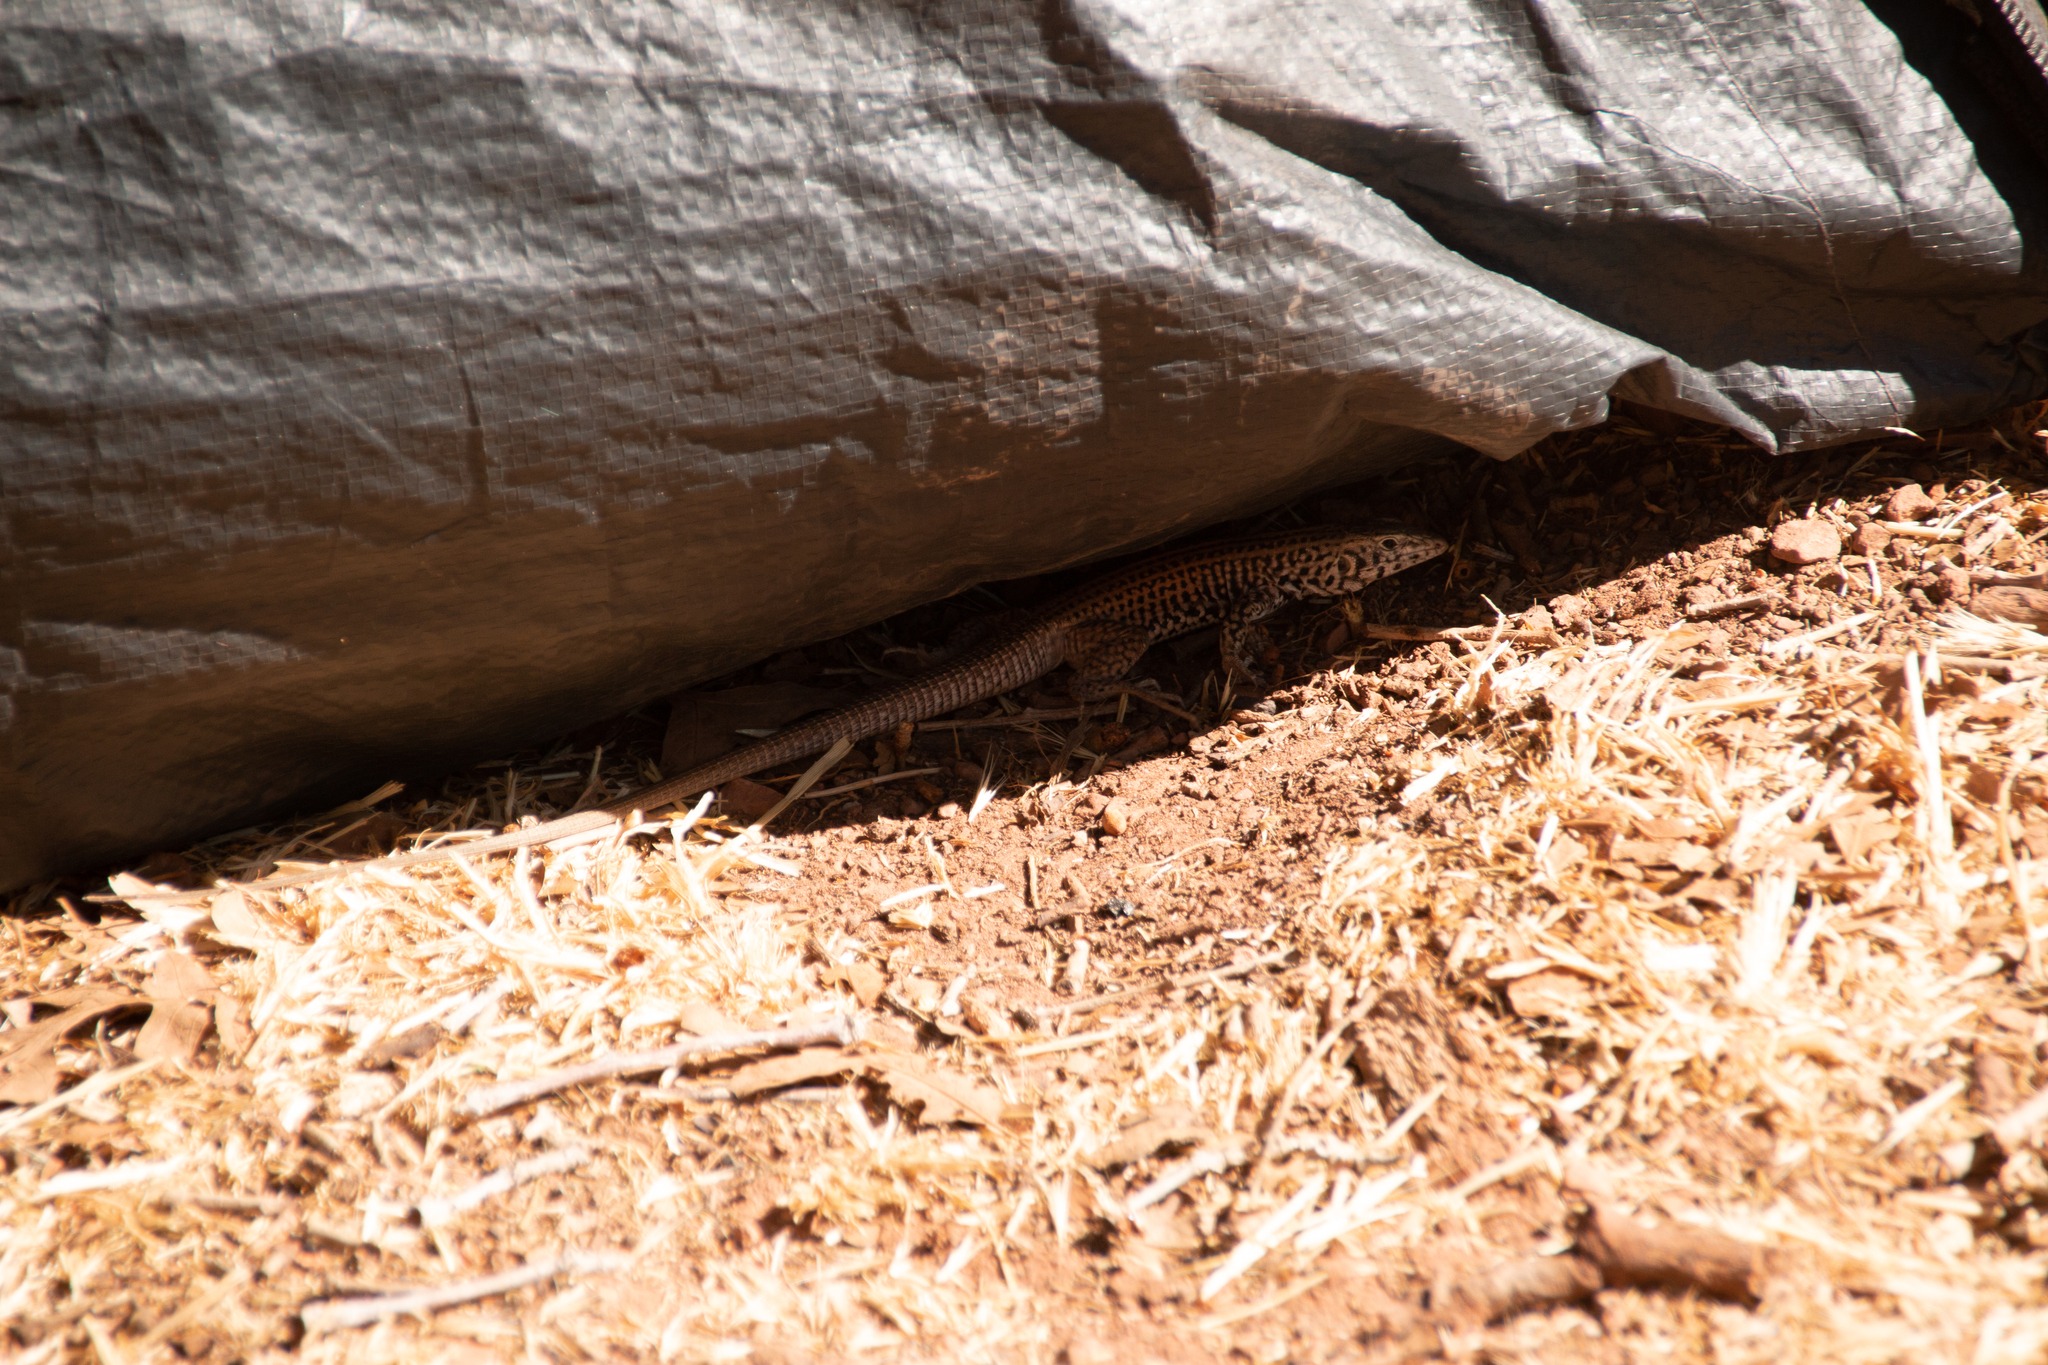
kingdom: Animalia
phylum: Chordata
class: Squamata
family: Teiidae
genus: Aspidoscelis
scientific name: Aspidoscelis tigris
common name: Tiger whiptail
